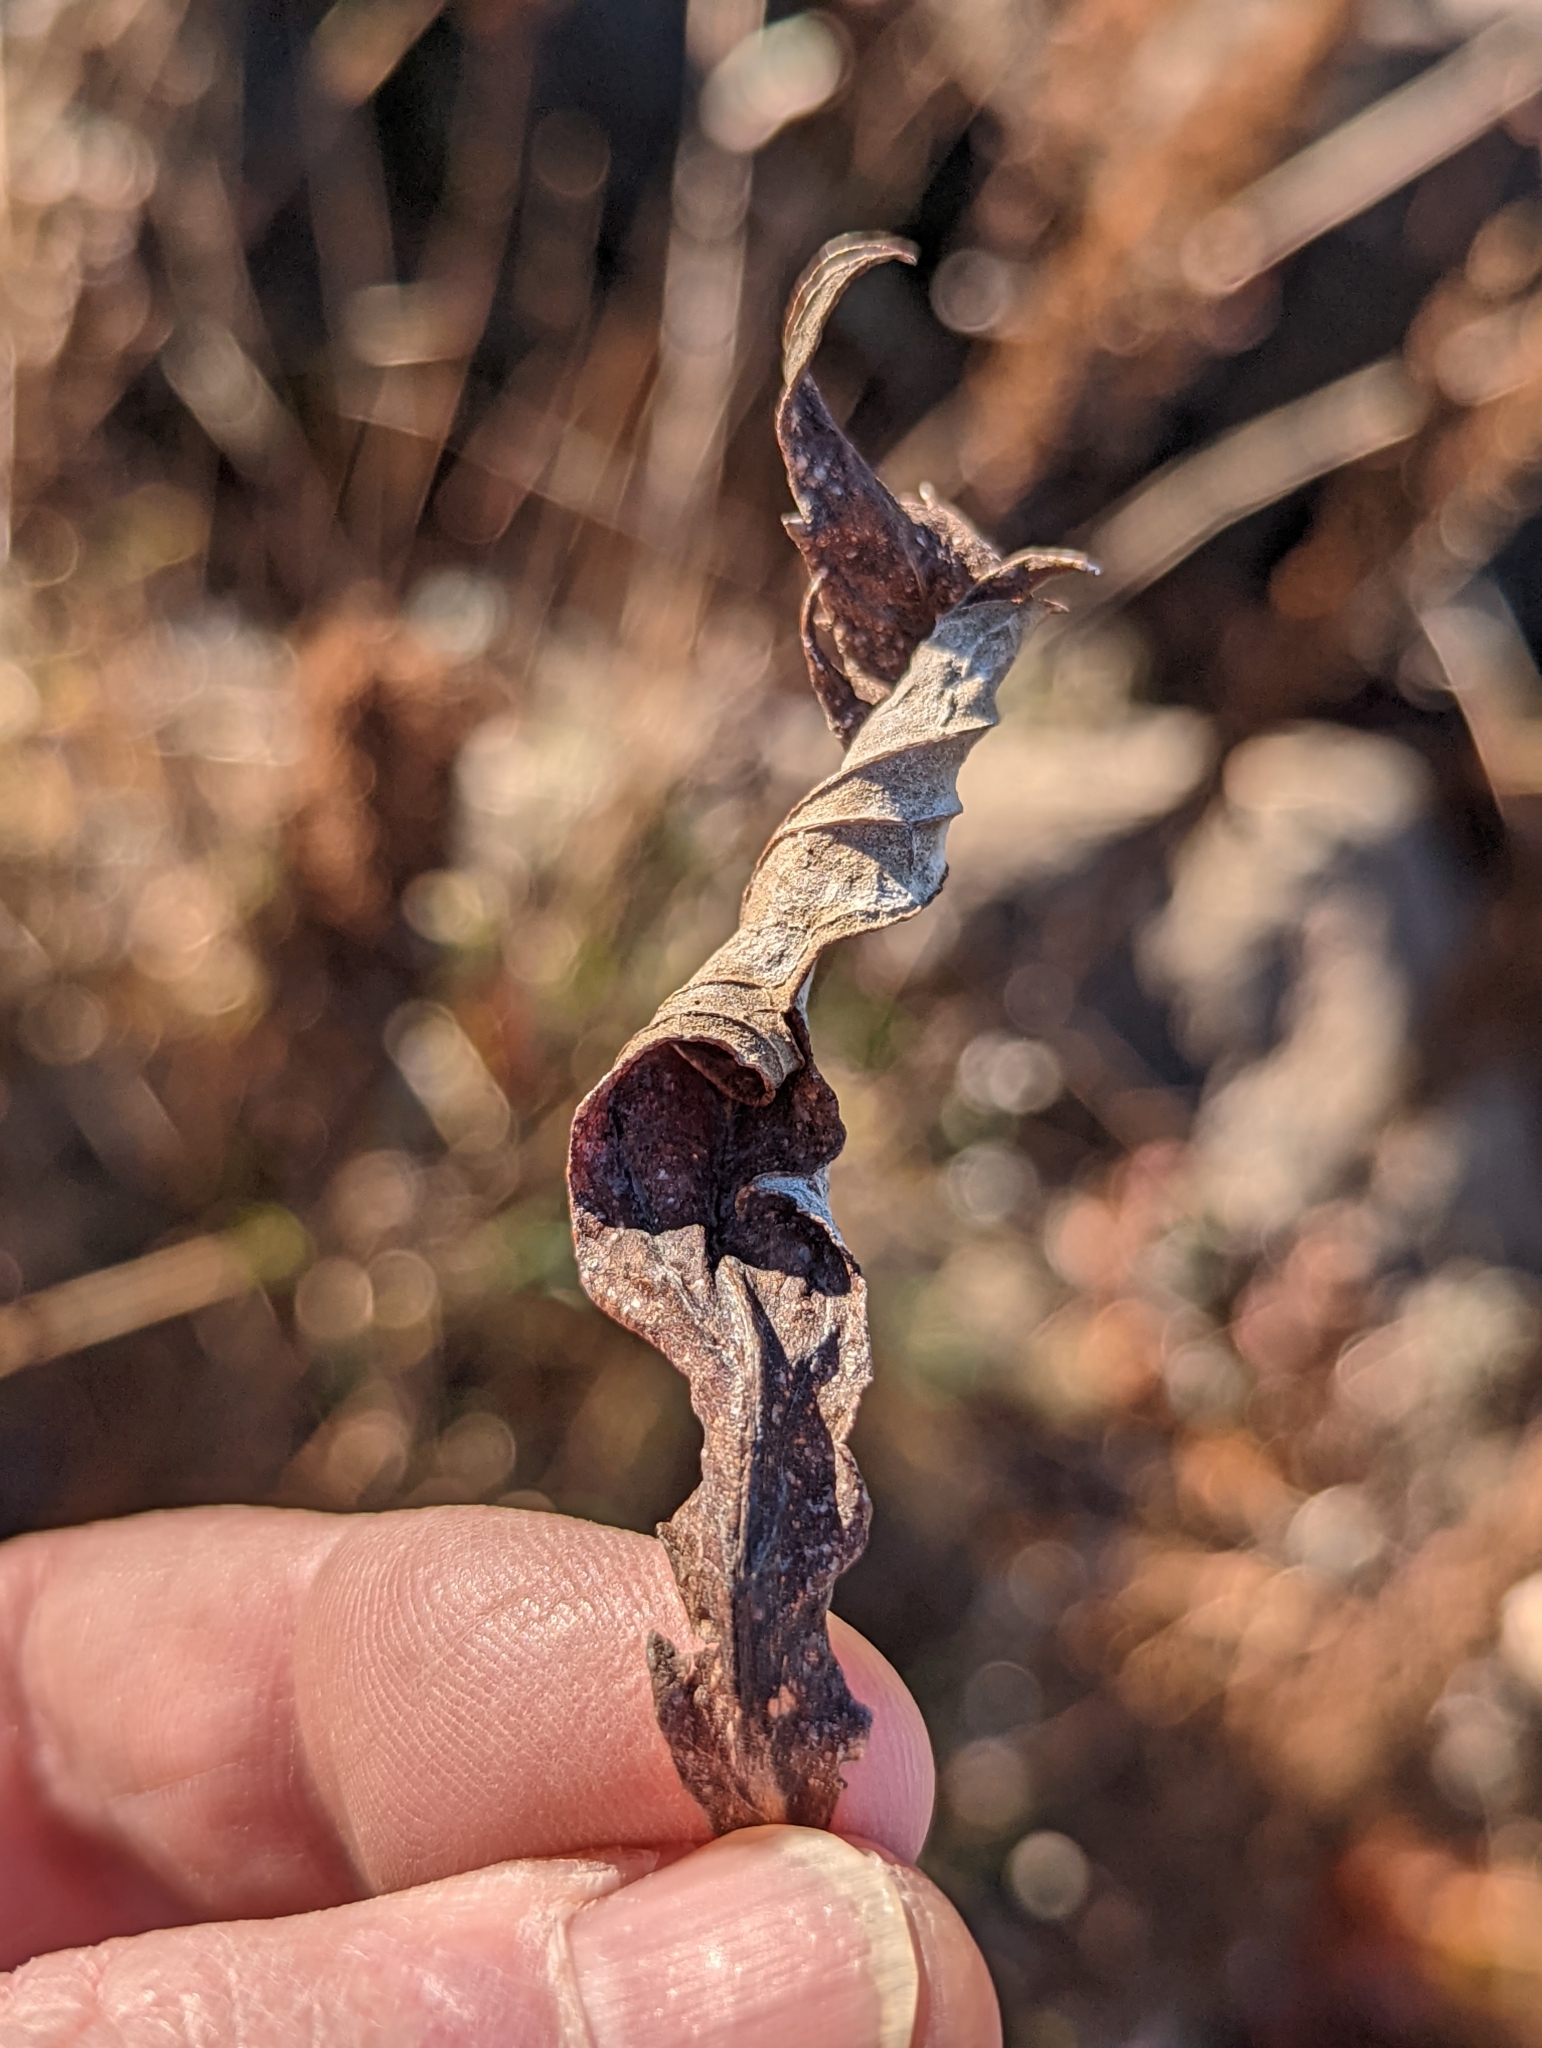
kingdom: Plantae
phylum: Tracheophyta
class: Magnoliopsida
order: Asterales
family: Asteraceae
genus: Artemisia
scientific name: Artemisia suksdorfii
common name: Suksdorf sagewort
